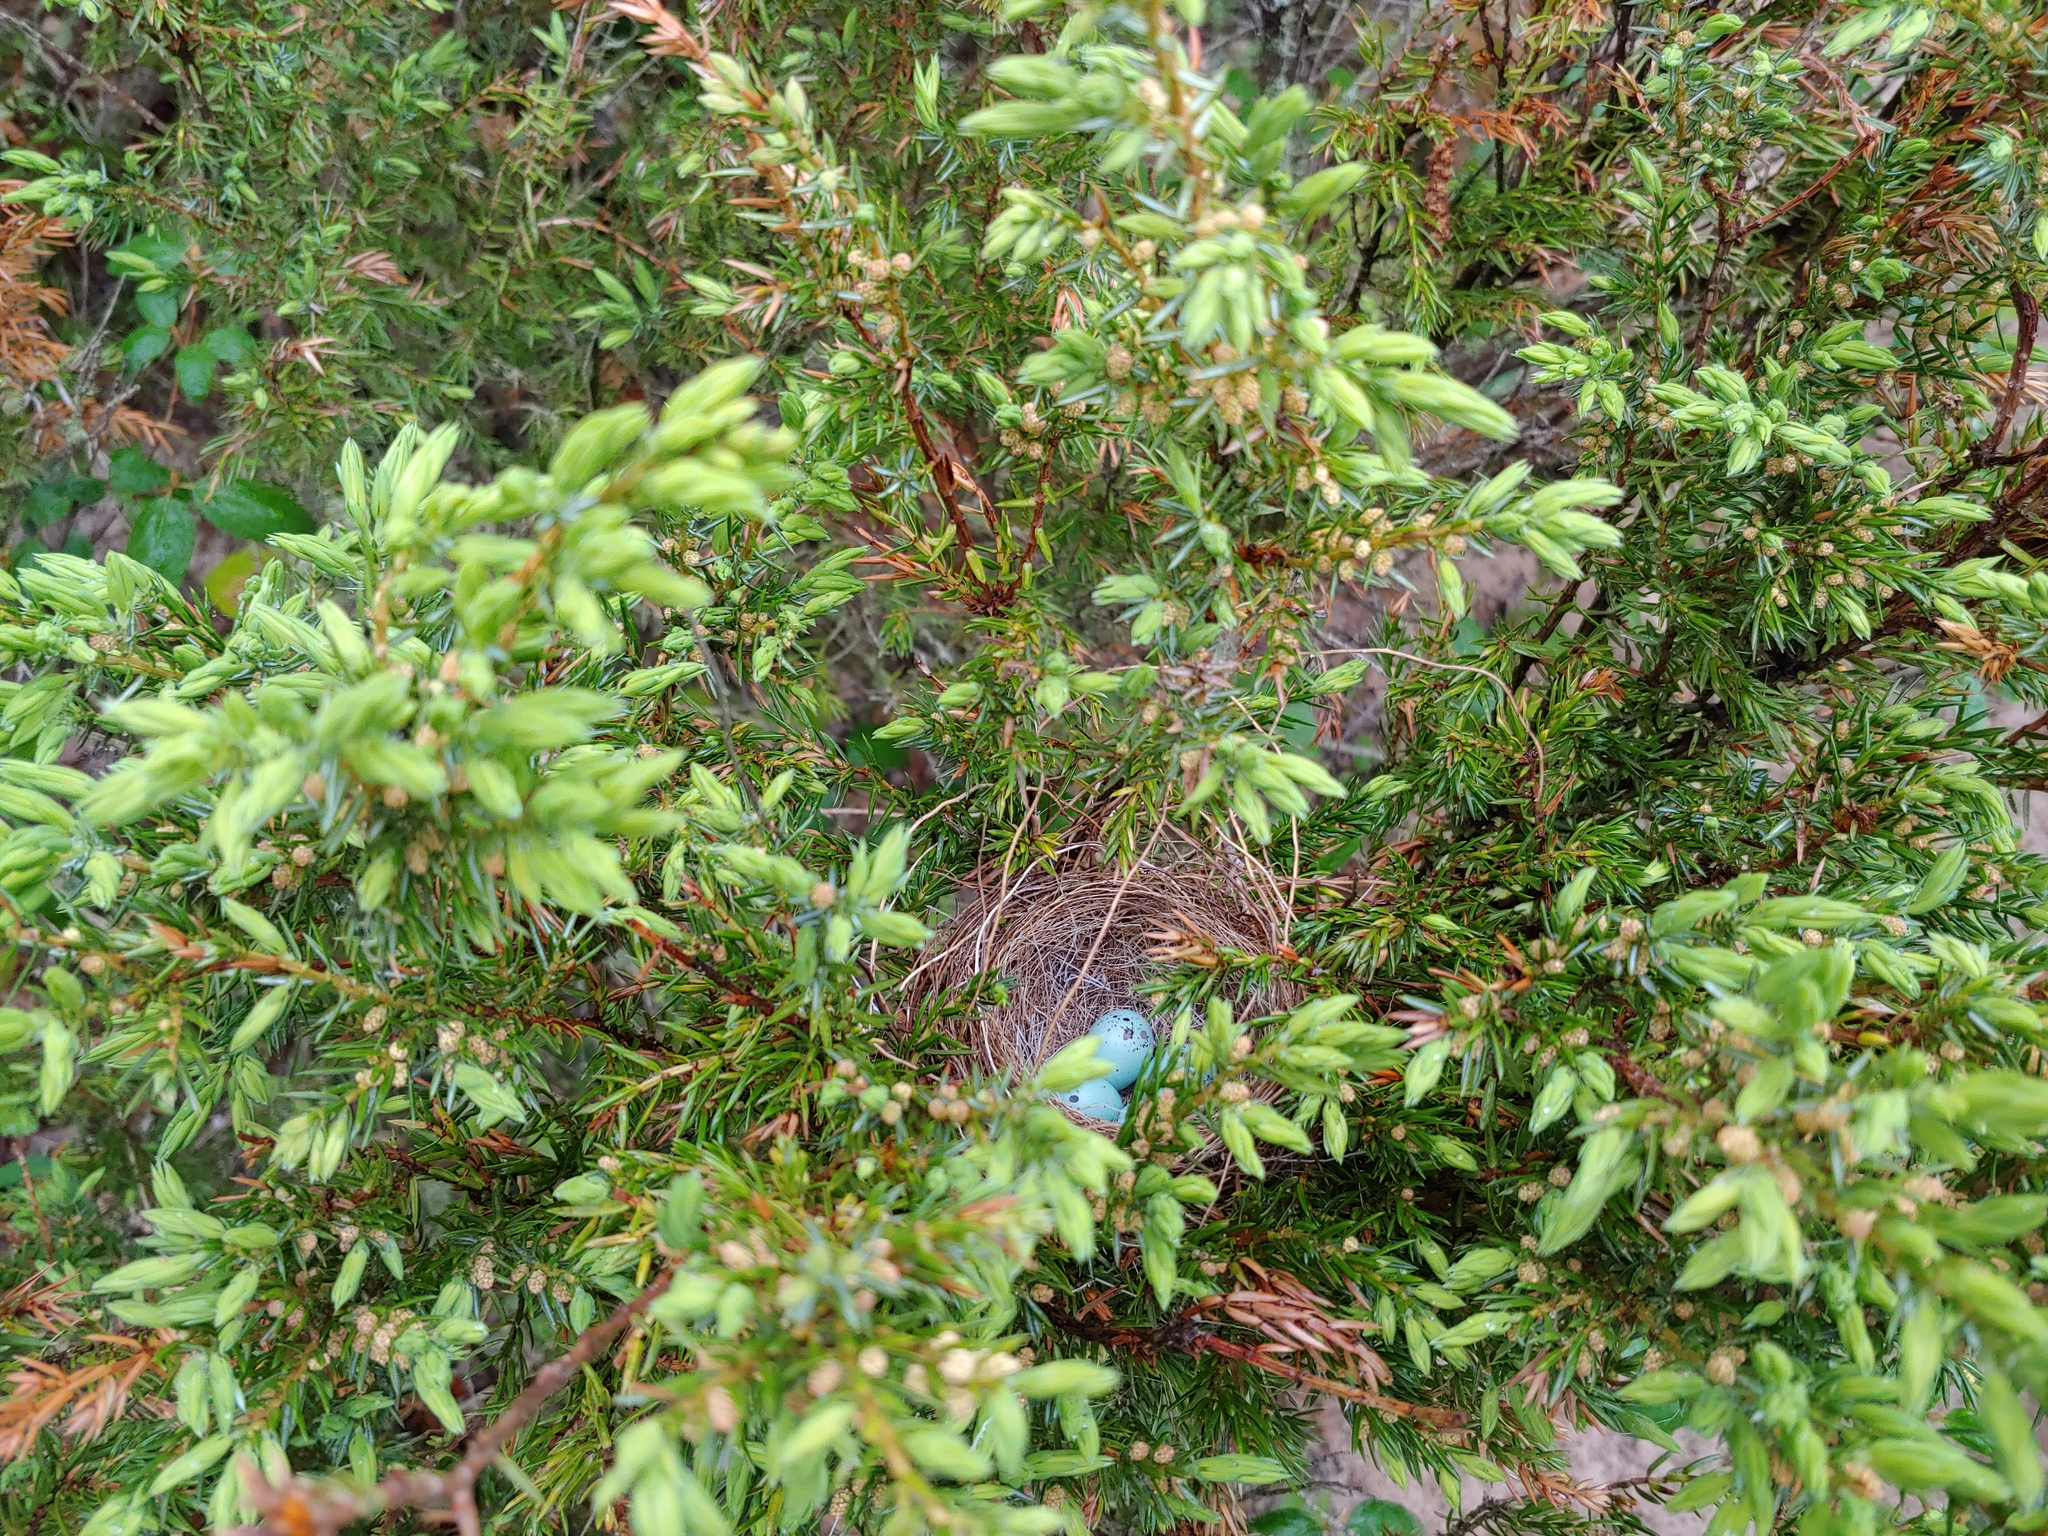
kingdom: Animalia
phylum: Chordata
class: Aves
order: Passeriformes
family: Passerellidae
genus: Spizella
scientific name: Spizella passerina
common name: Chipping sparrow
